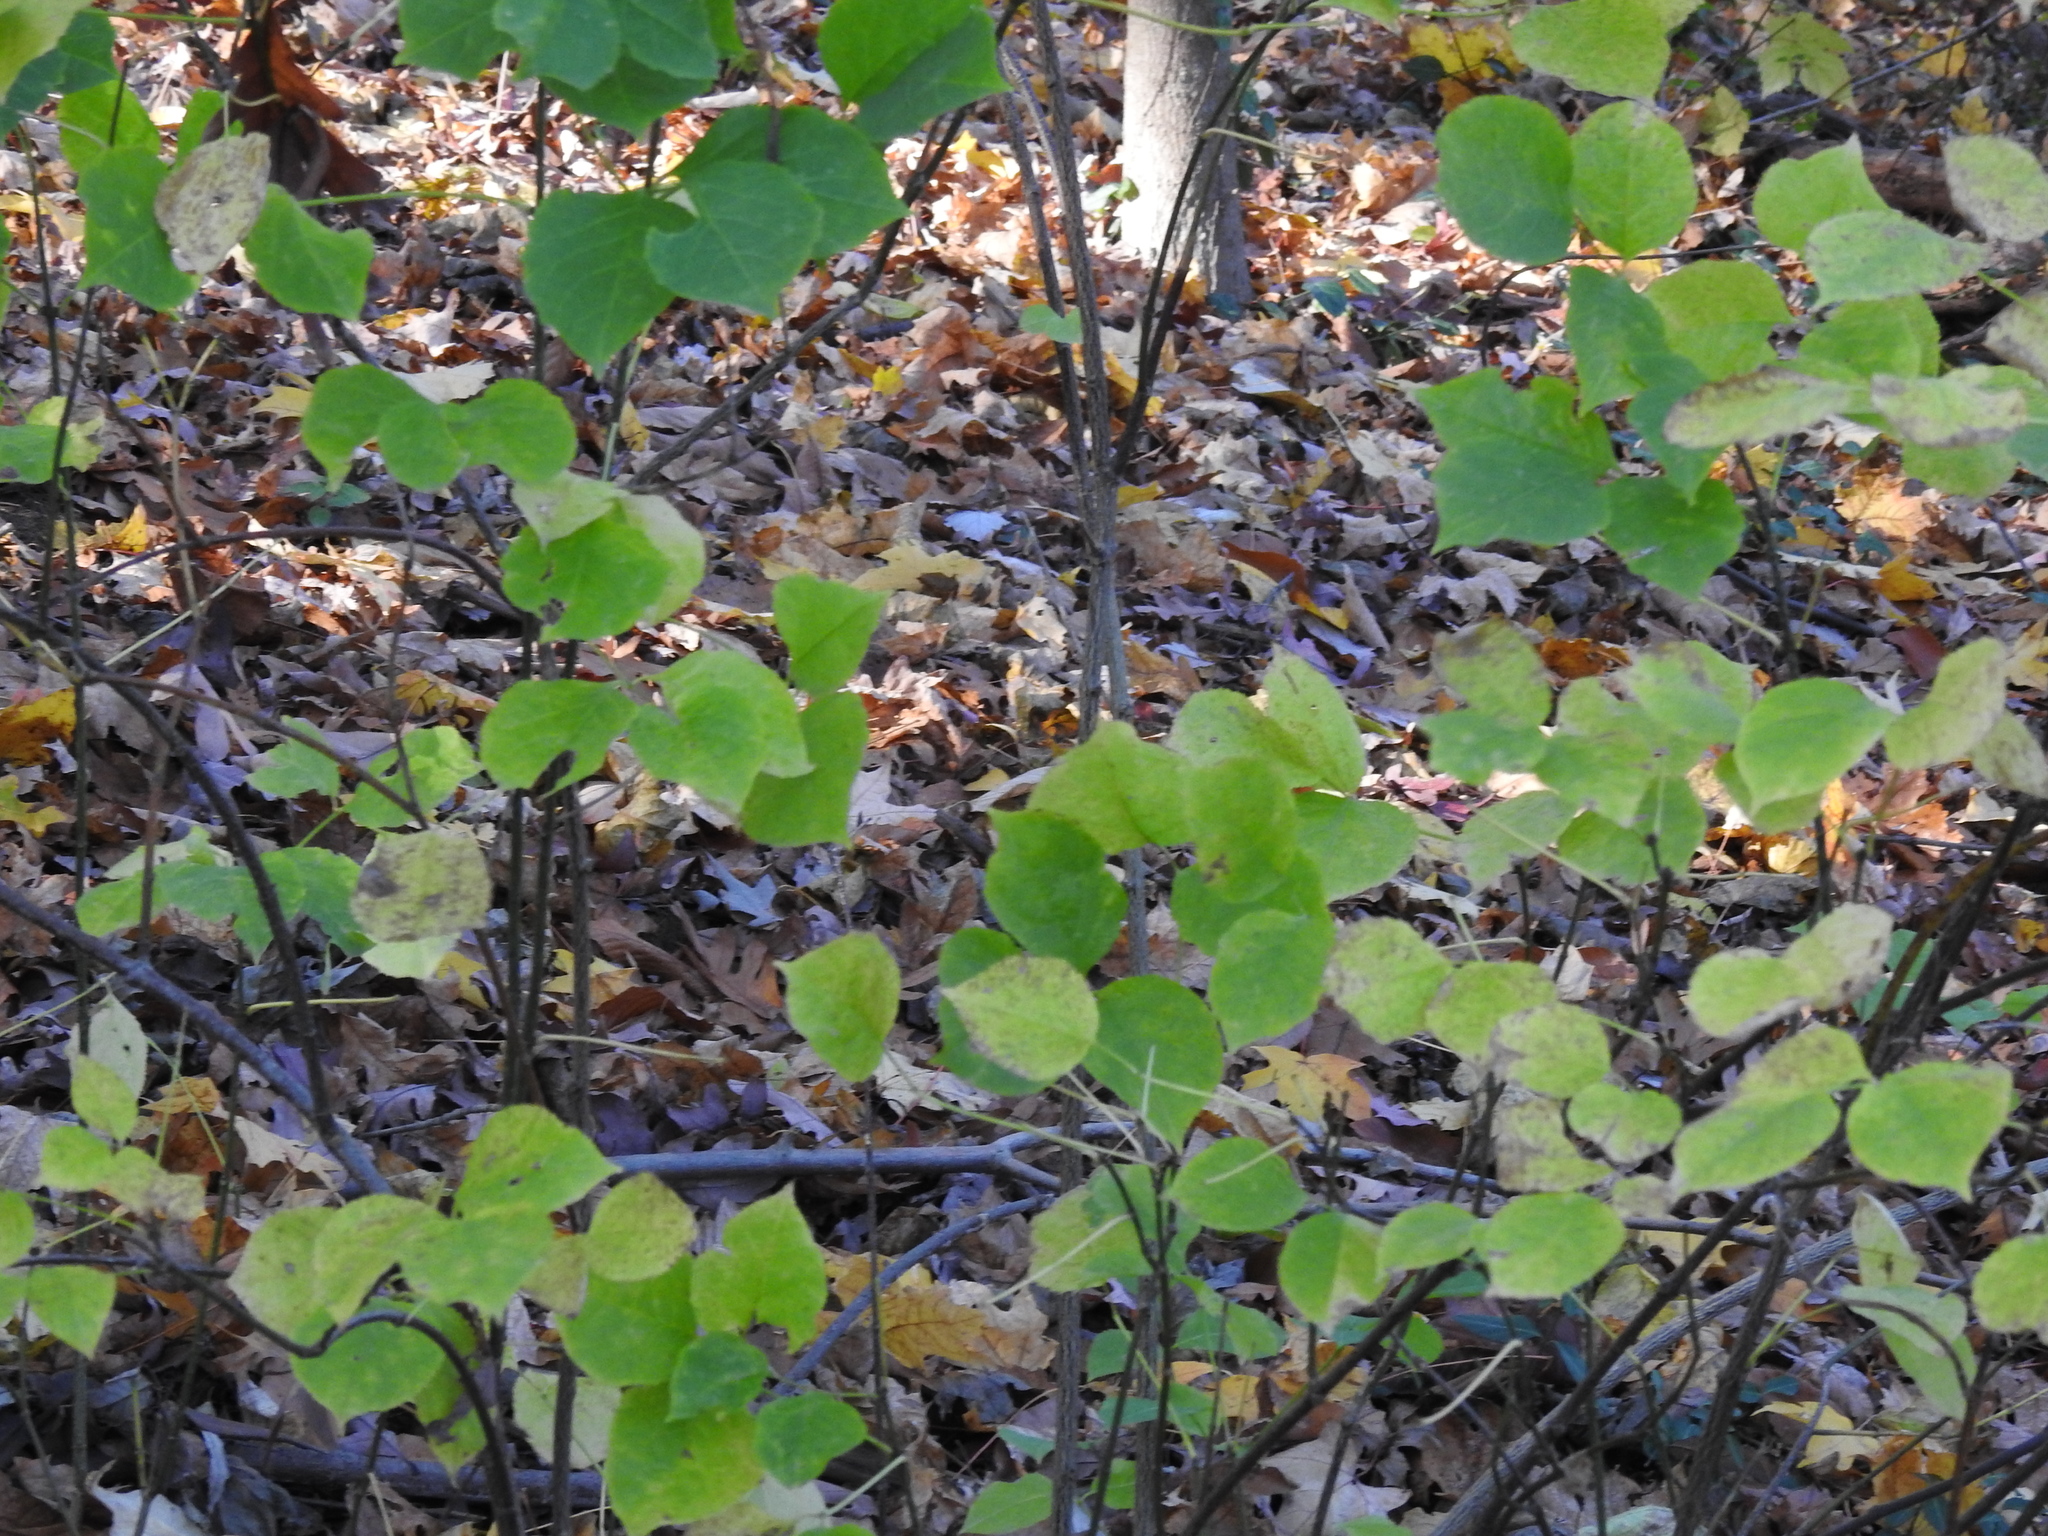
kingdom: Plantae
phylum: Tracheophyta
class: Magnoliopsida
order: Crossosomatales
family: Staphyleaceae
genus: Staphylea
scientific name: Staphylea trifolia
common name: American bladdernut
